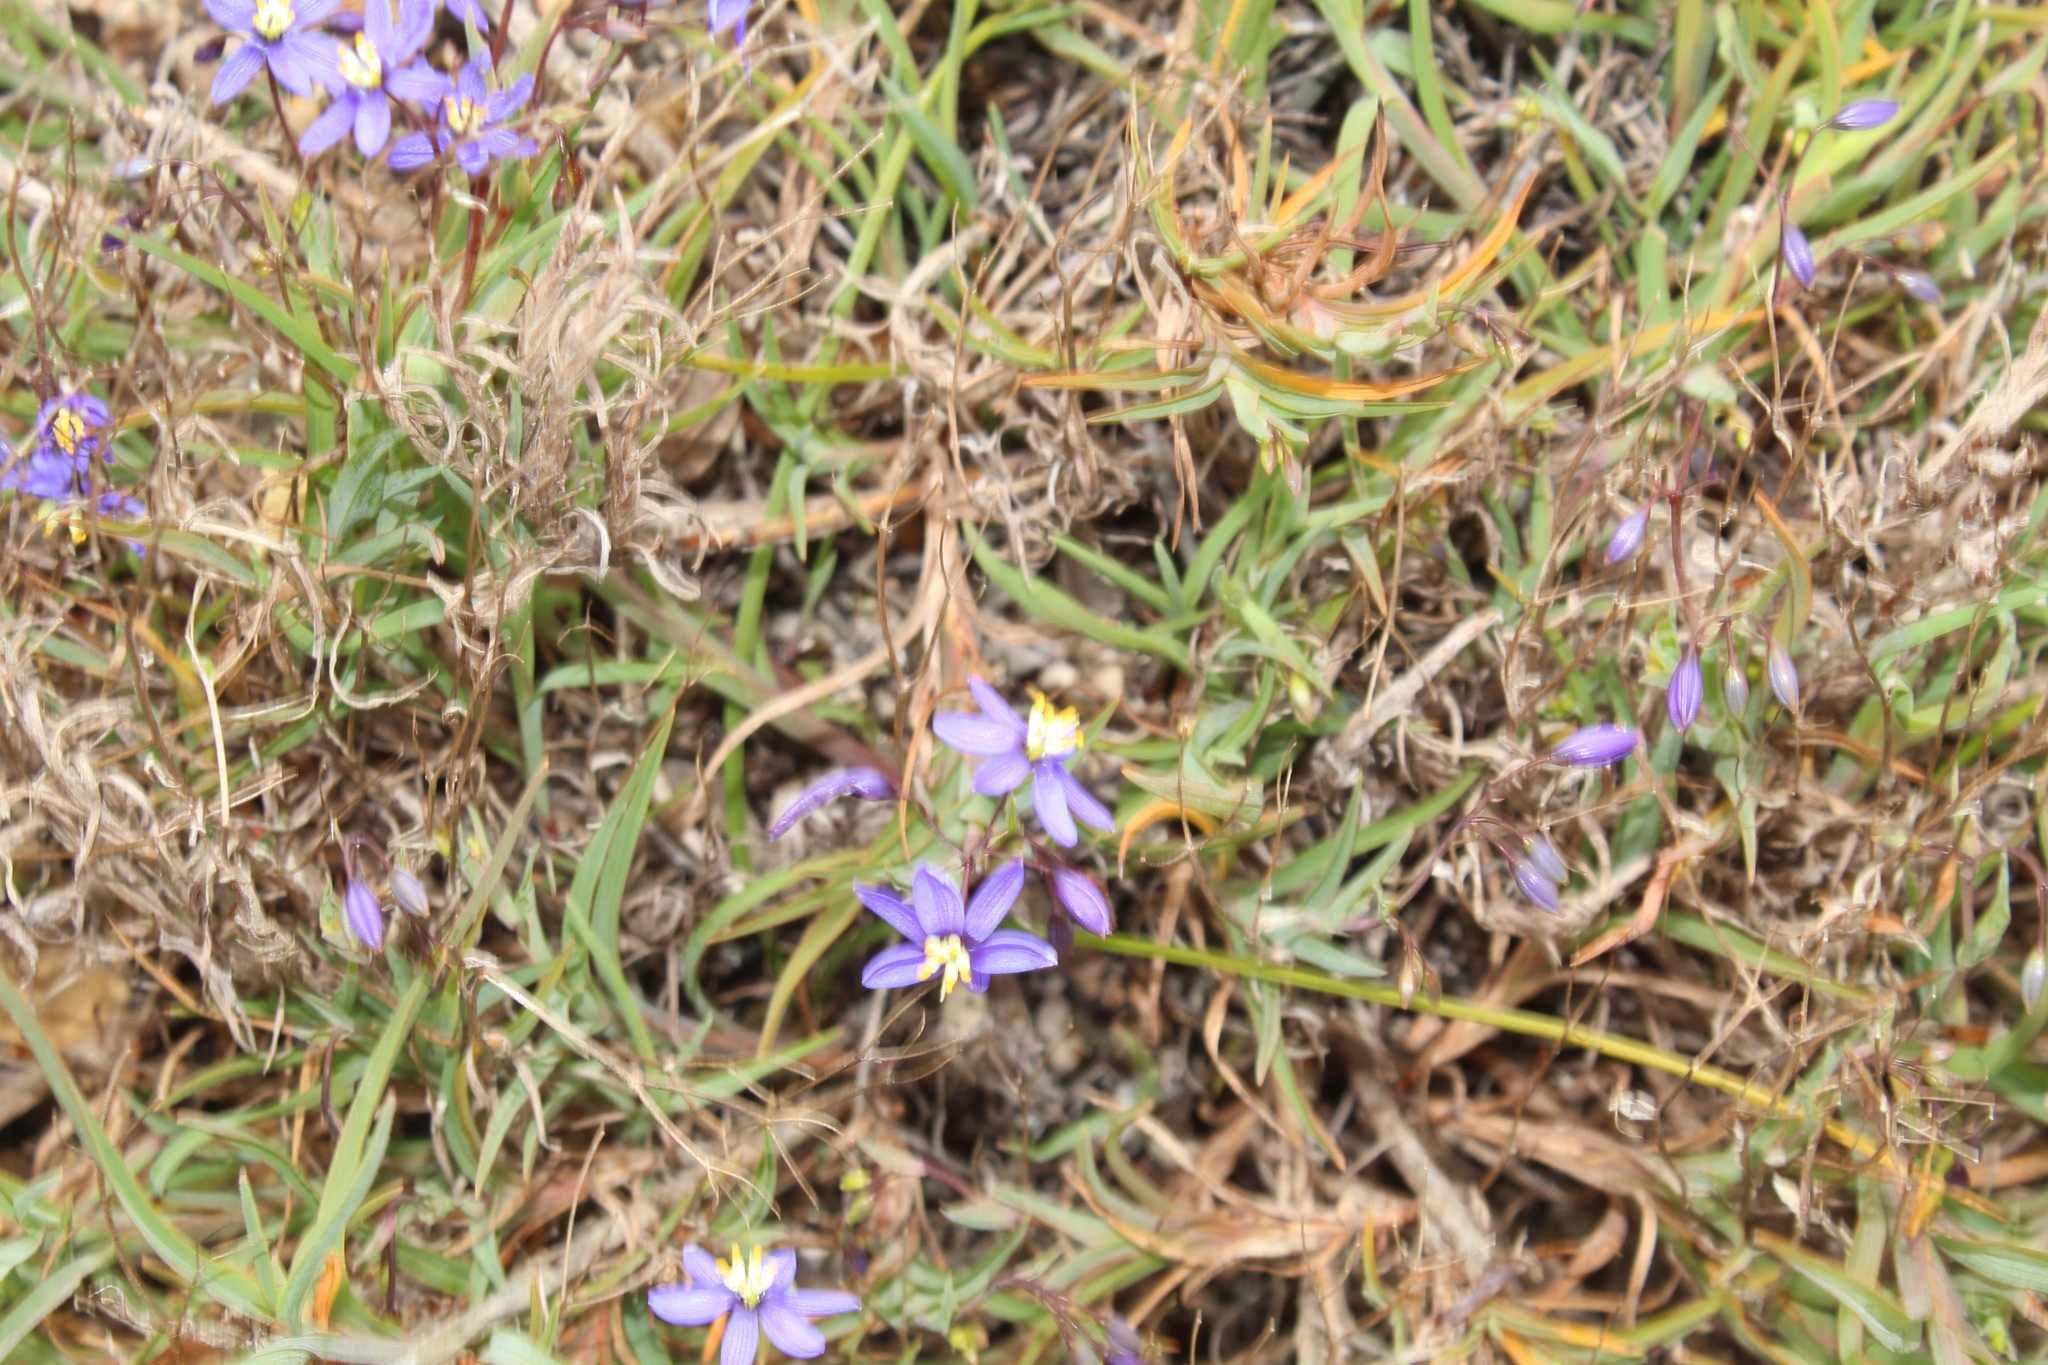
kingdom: Plantae
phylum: Tracheophyta
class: Liliopsida
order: Asparagales
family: Asphodelaceae
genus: Stypandra
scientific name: Stypandra glauca
